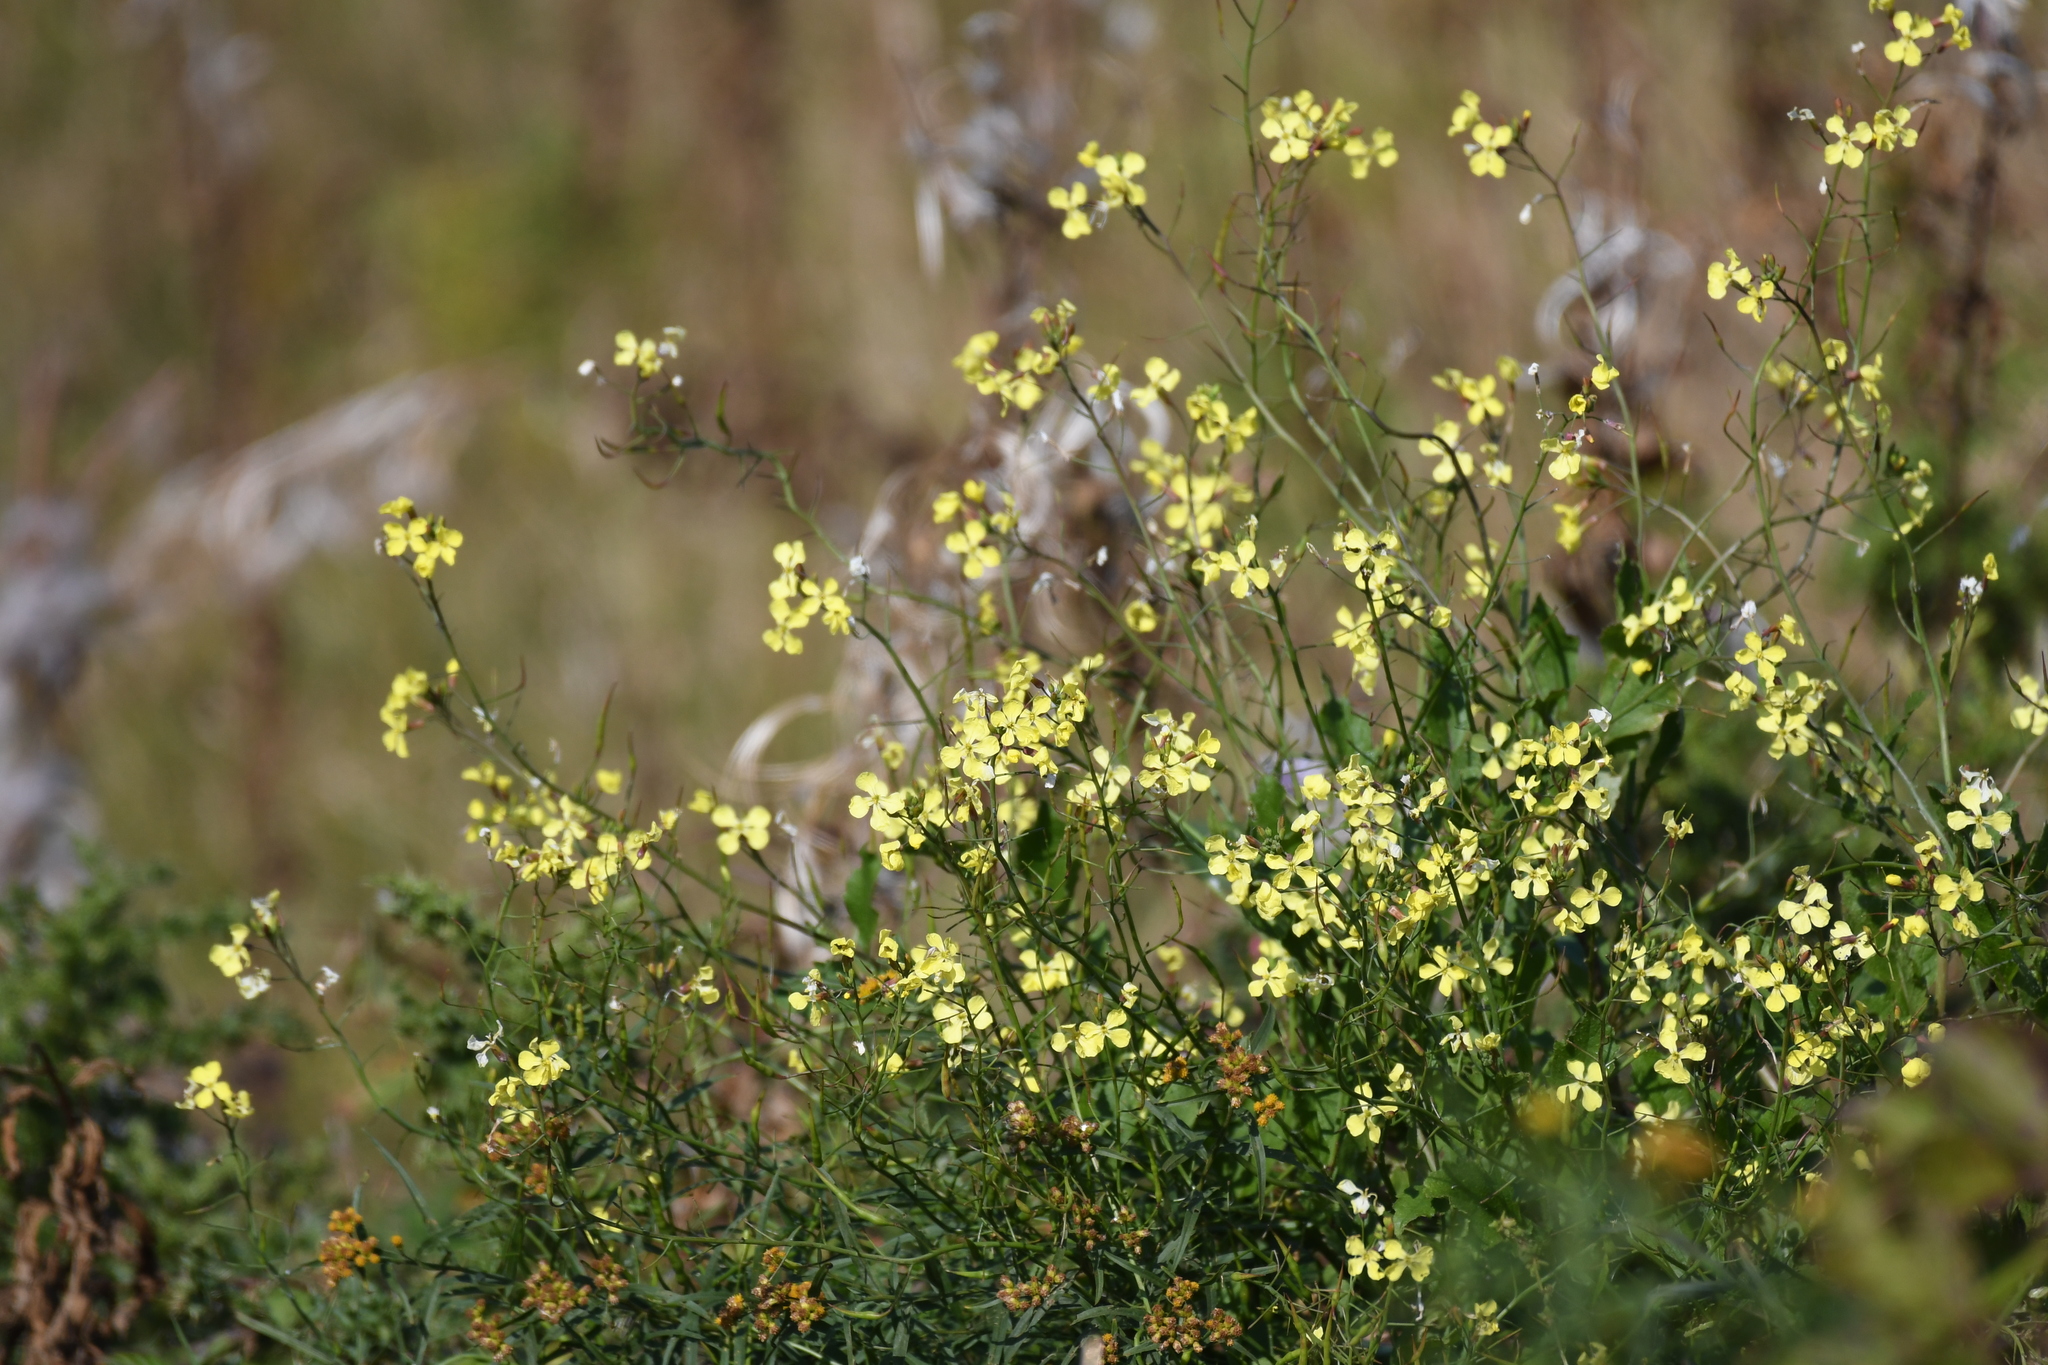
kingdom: Plantae
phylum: Tracheophyta
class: Magnoliopsida
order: Brassicales
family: Brassicaceae
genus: Raphanus
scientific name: Raphanus raphanistrum
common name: Wild radish
